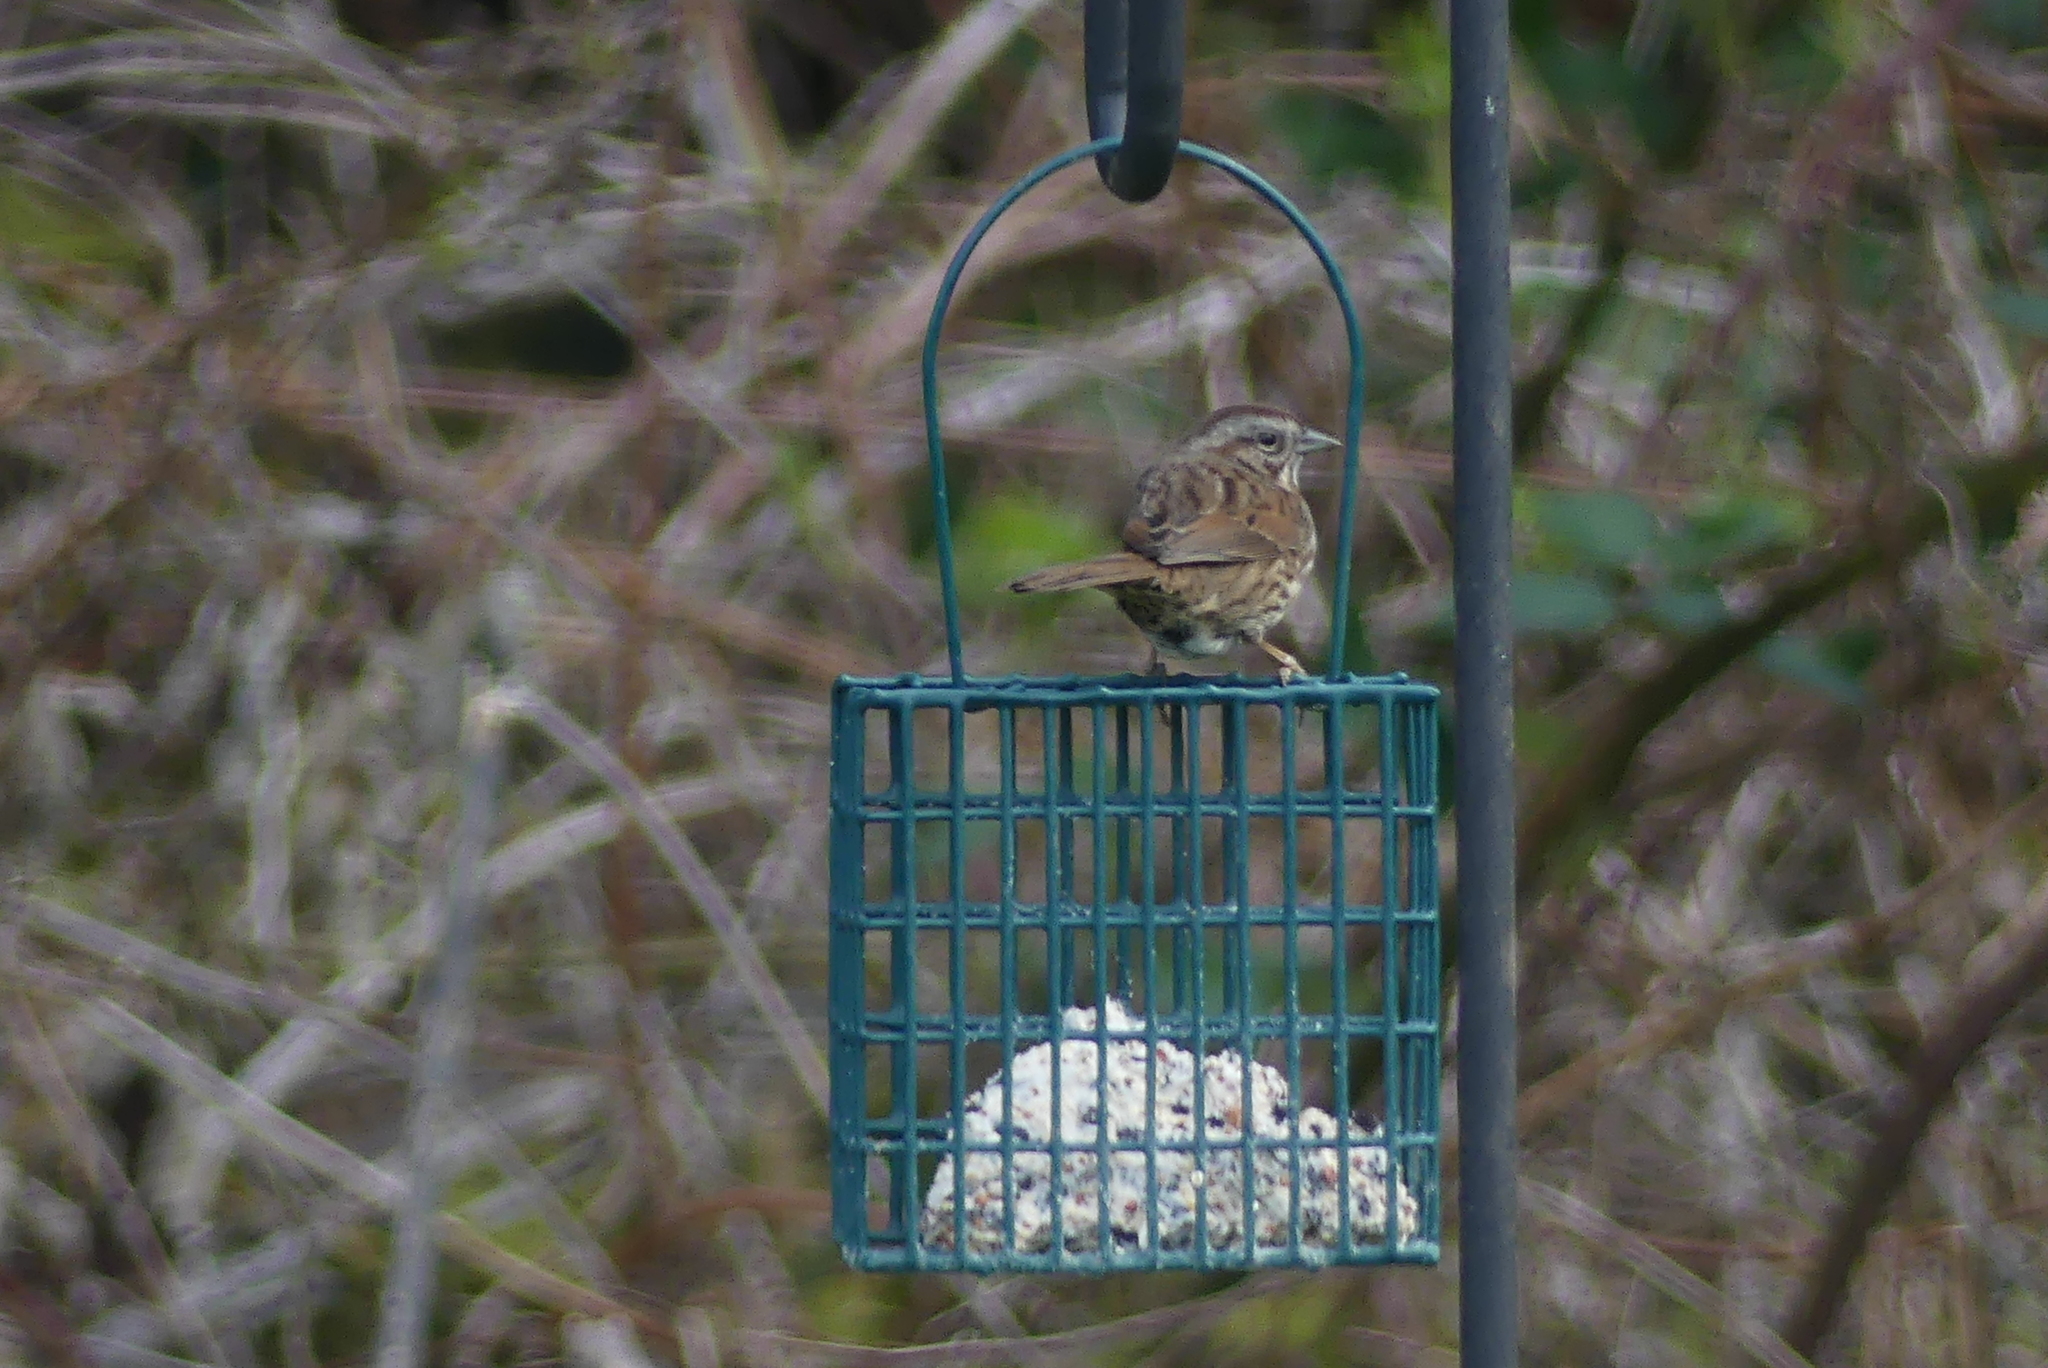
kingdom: Animalia
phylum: Chordata
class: Aves
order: Passeriformes
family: Passerellidae
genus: Melospiza
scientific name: Melospiza melodia
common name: Song sparrow
